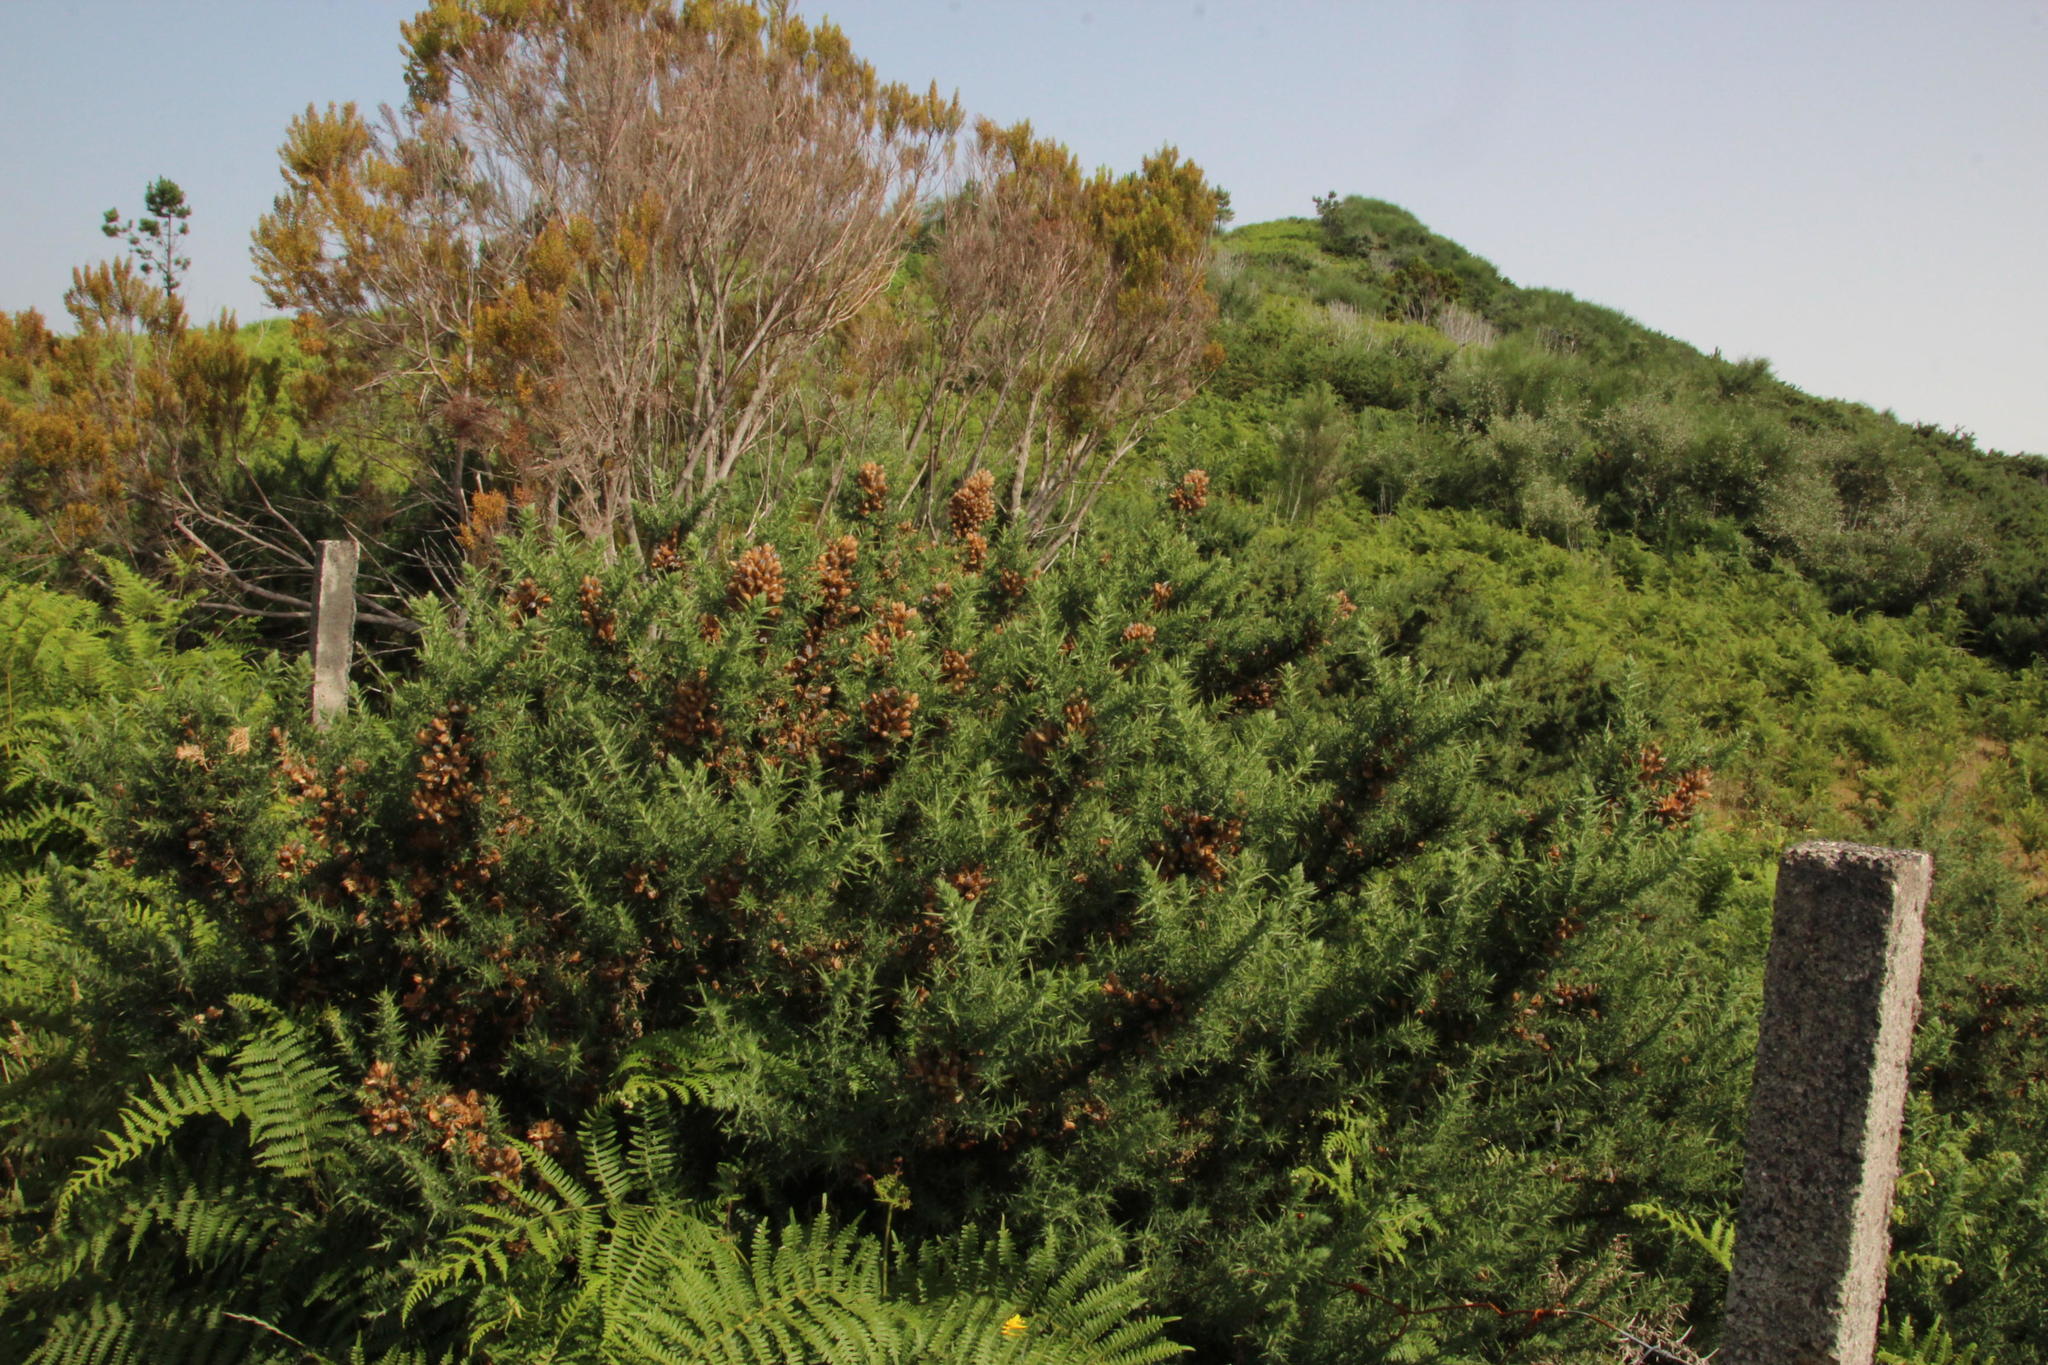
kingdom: Plantae
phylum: Tracheophyta
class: Magnoliopsida
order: Fabales
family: Fabaceae
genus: Ulex
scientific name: Ulex europaeus
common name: Common gorse
